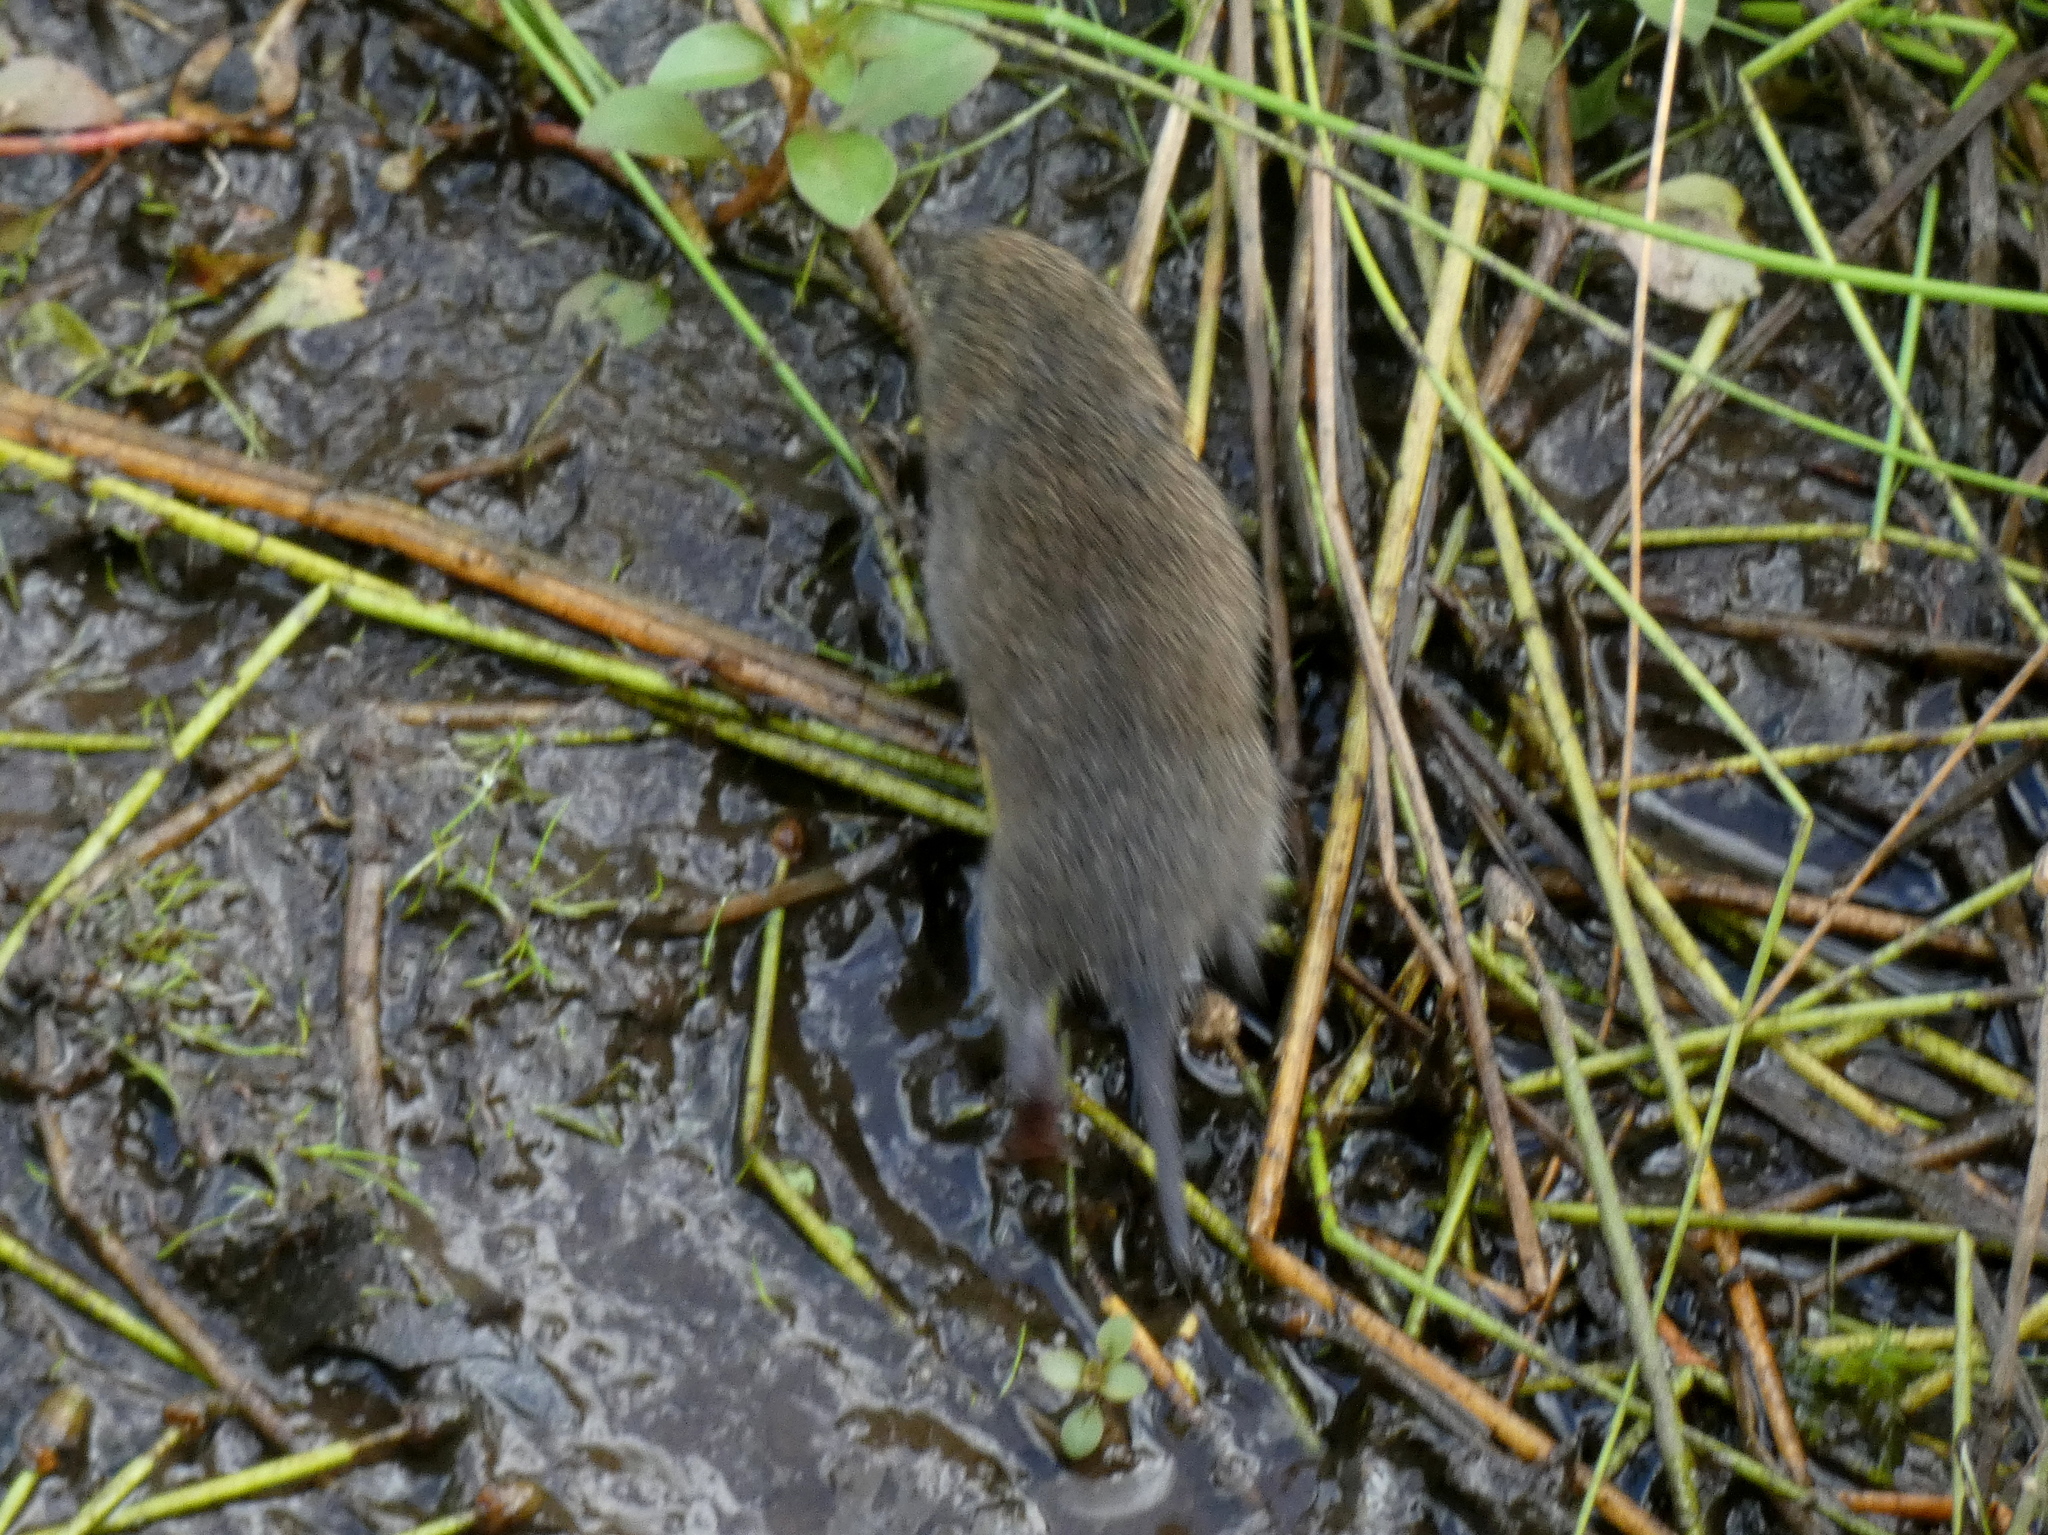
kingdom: Animalia
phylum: Chordata
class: Mammalia
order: Rodentia
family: Cricetidae
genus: Microtus
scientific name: Microtus pennsylvanicus
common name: Meadow vole
